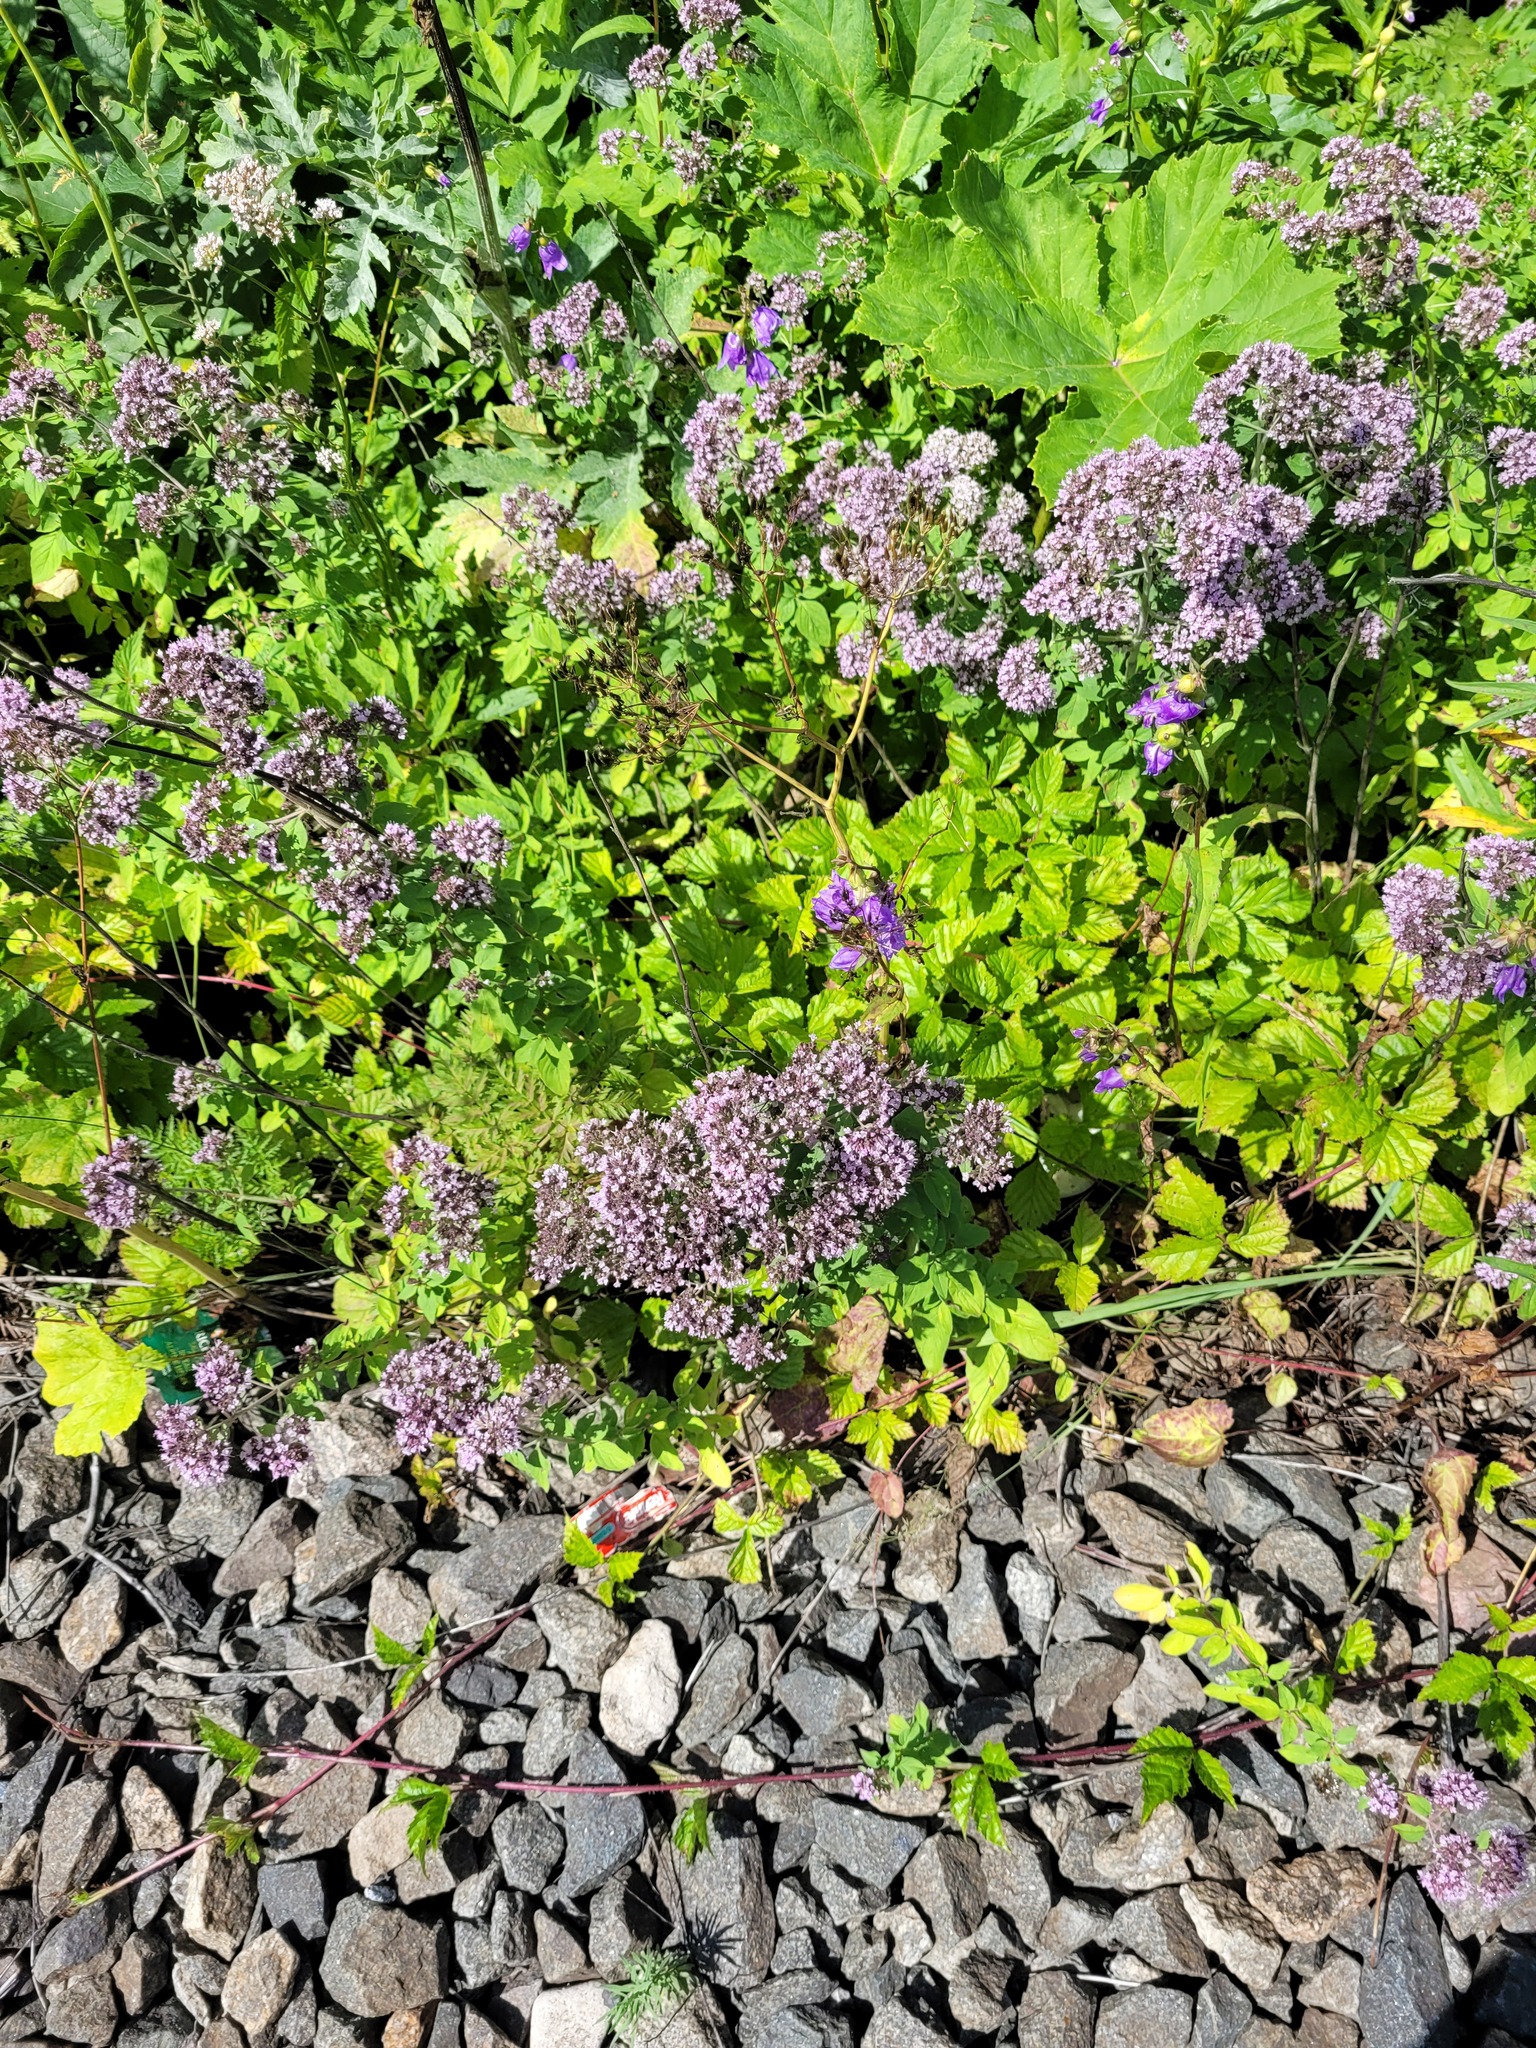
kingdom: Plantae
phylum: Tracheophyta
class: Magnoliopsida
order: Lamiales
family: Lamiaceae
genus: Origanum
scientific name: Origanum vulgare
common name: Wild marjoram
